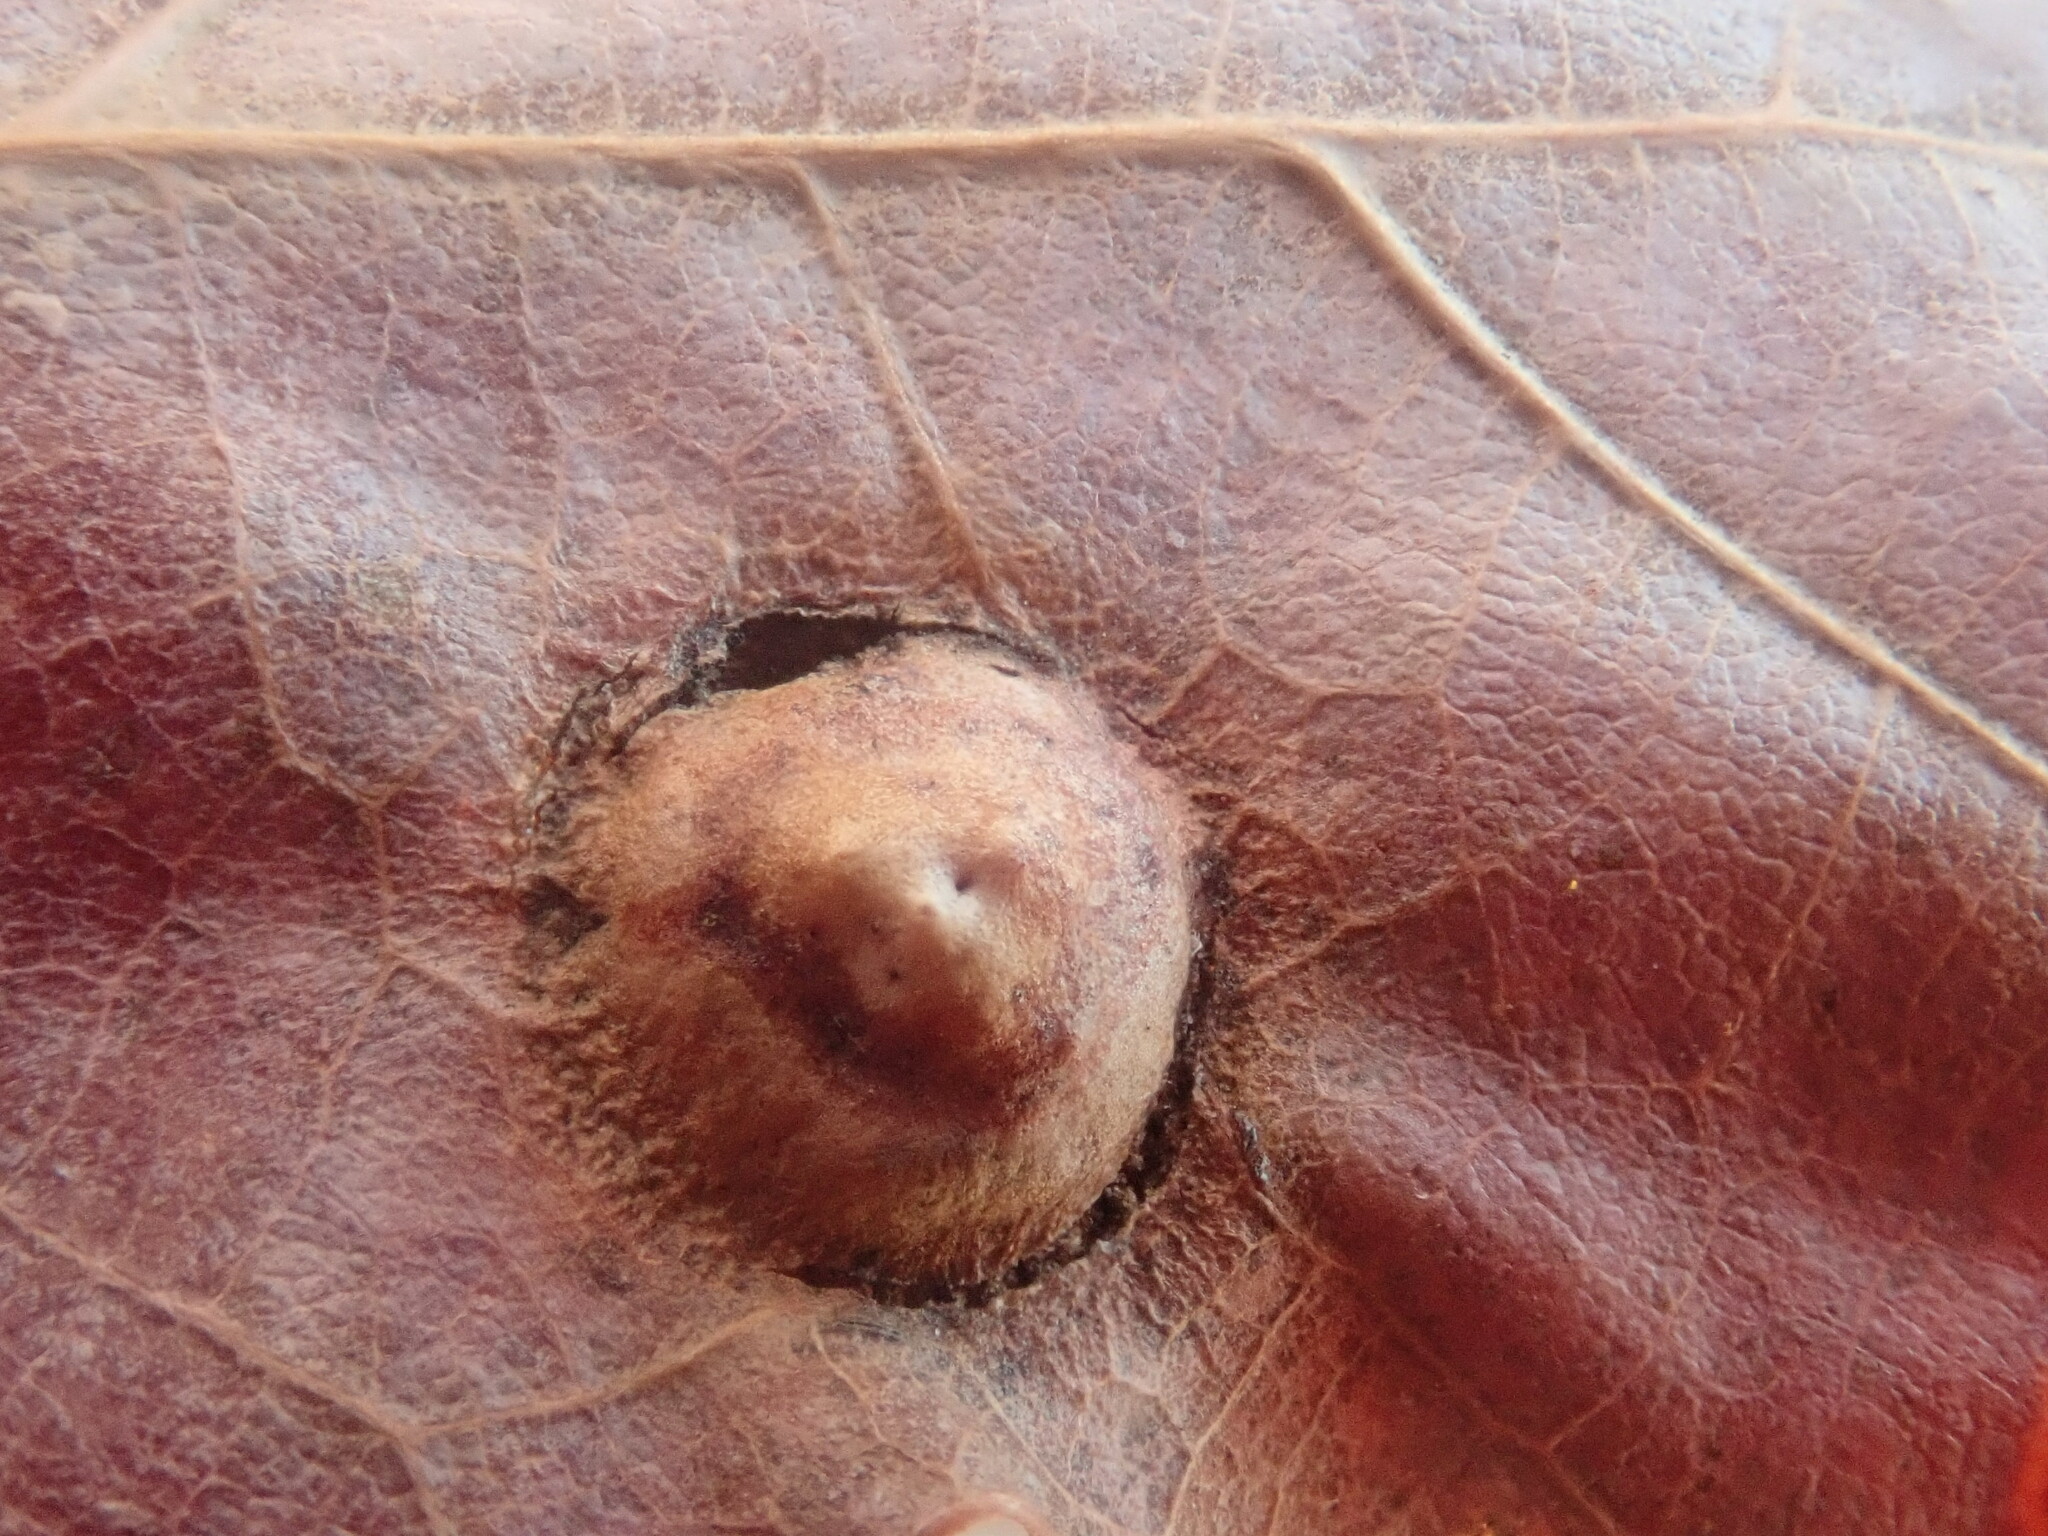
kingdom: Animalia
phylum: Arthropoda
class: Insecta
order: Hymenoptera
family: Cynipidae
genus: Callirhytis
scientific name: Callirhytis
